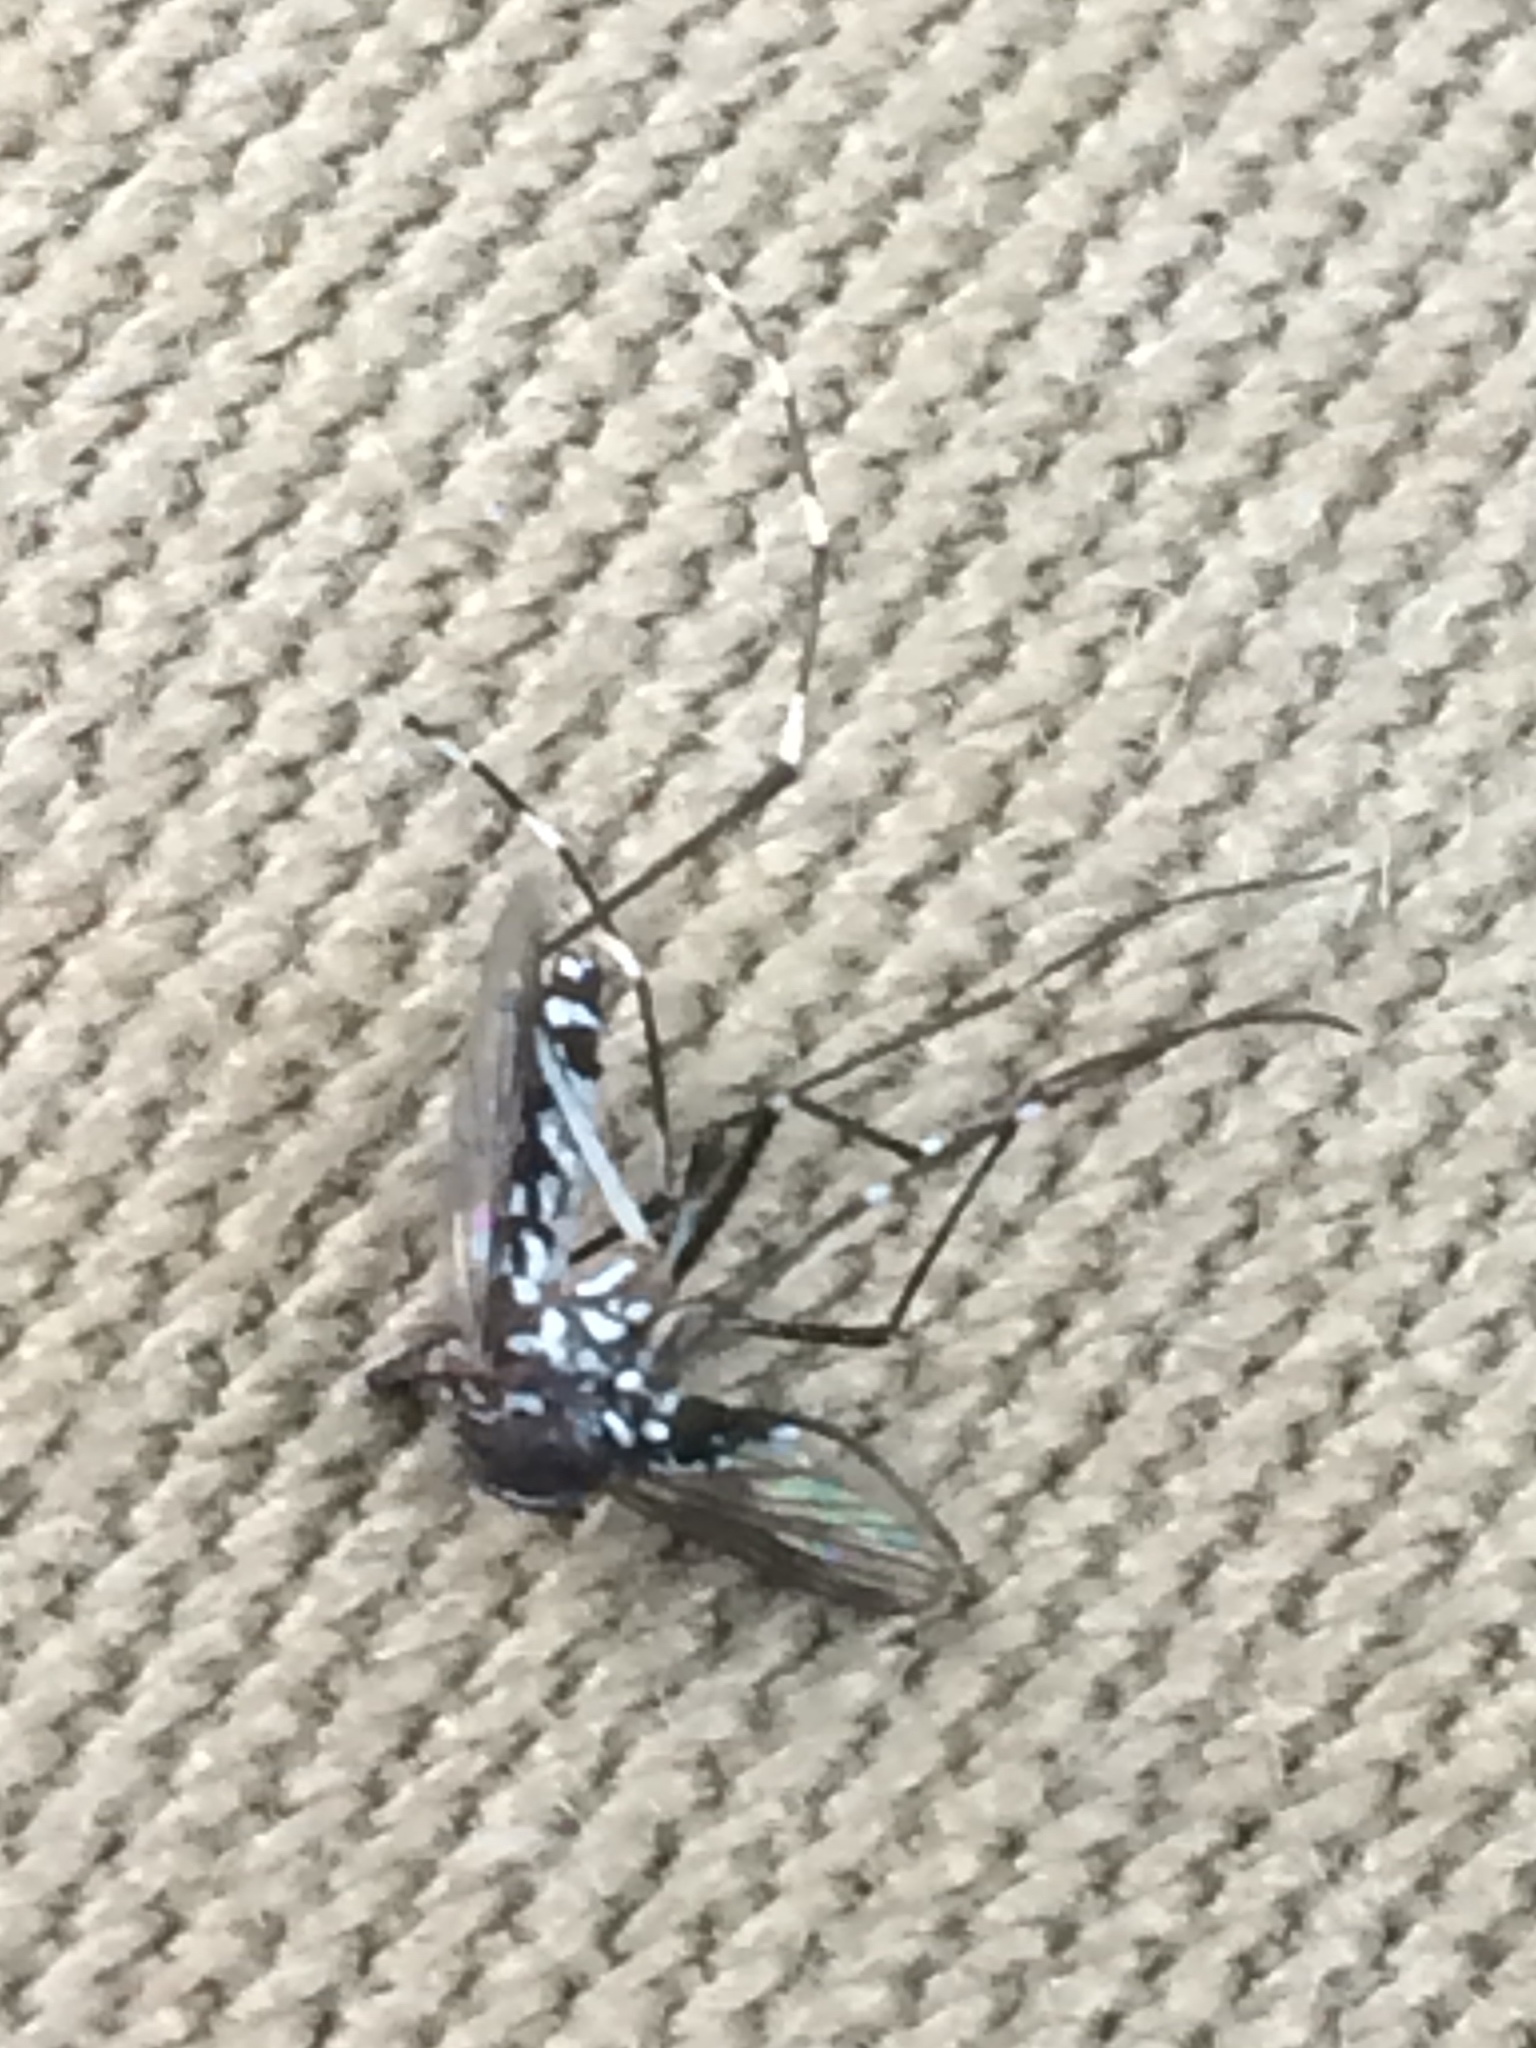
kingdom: Animalia
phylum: Arthropoda
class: Insecta
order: Diptera
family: Culicidae
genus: Aedes
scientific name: Aedes albopictus
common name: Tiger mosquito
